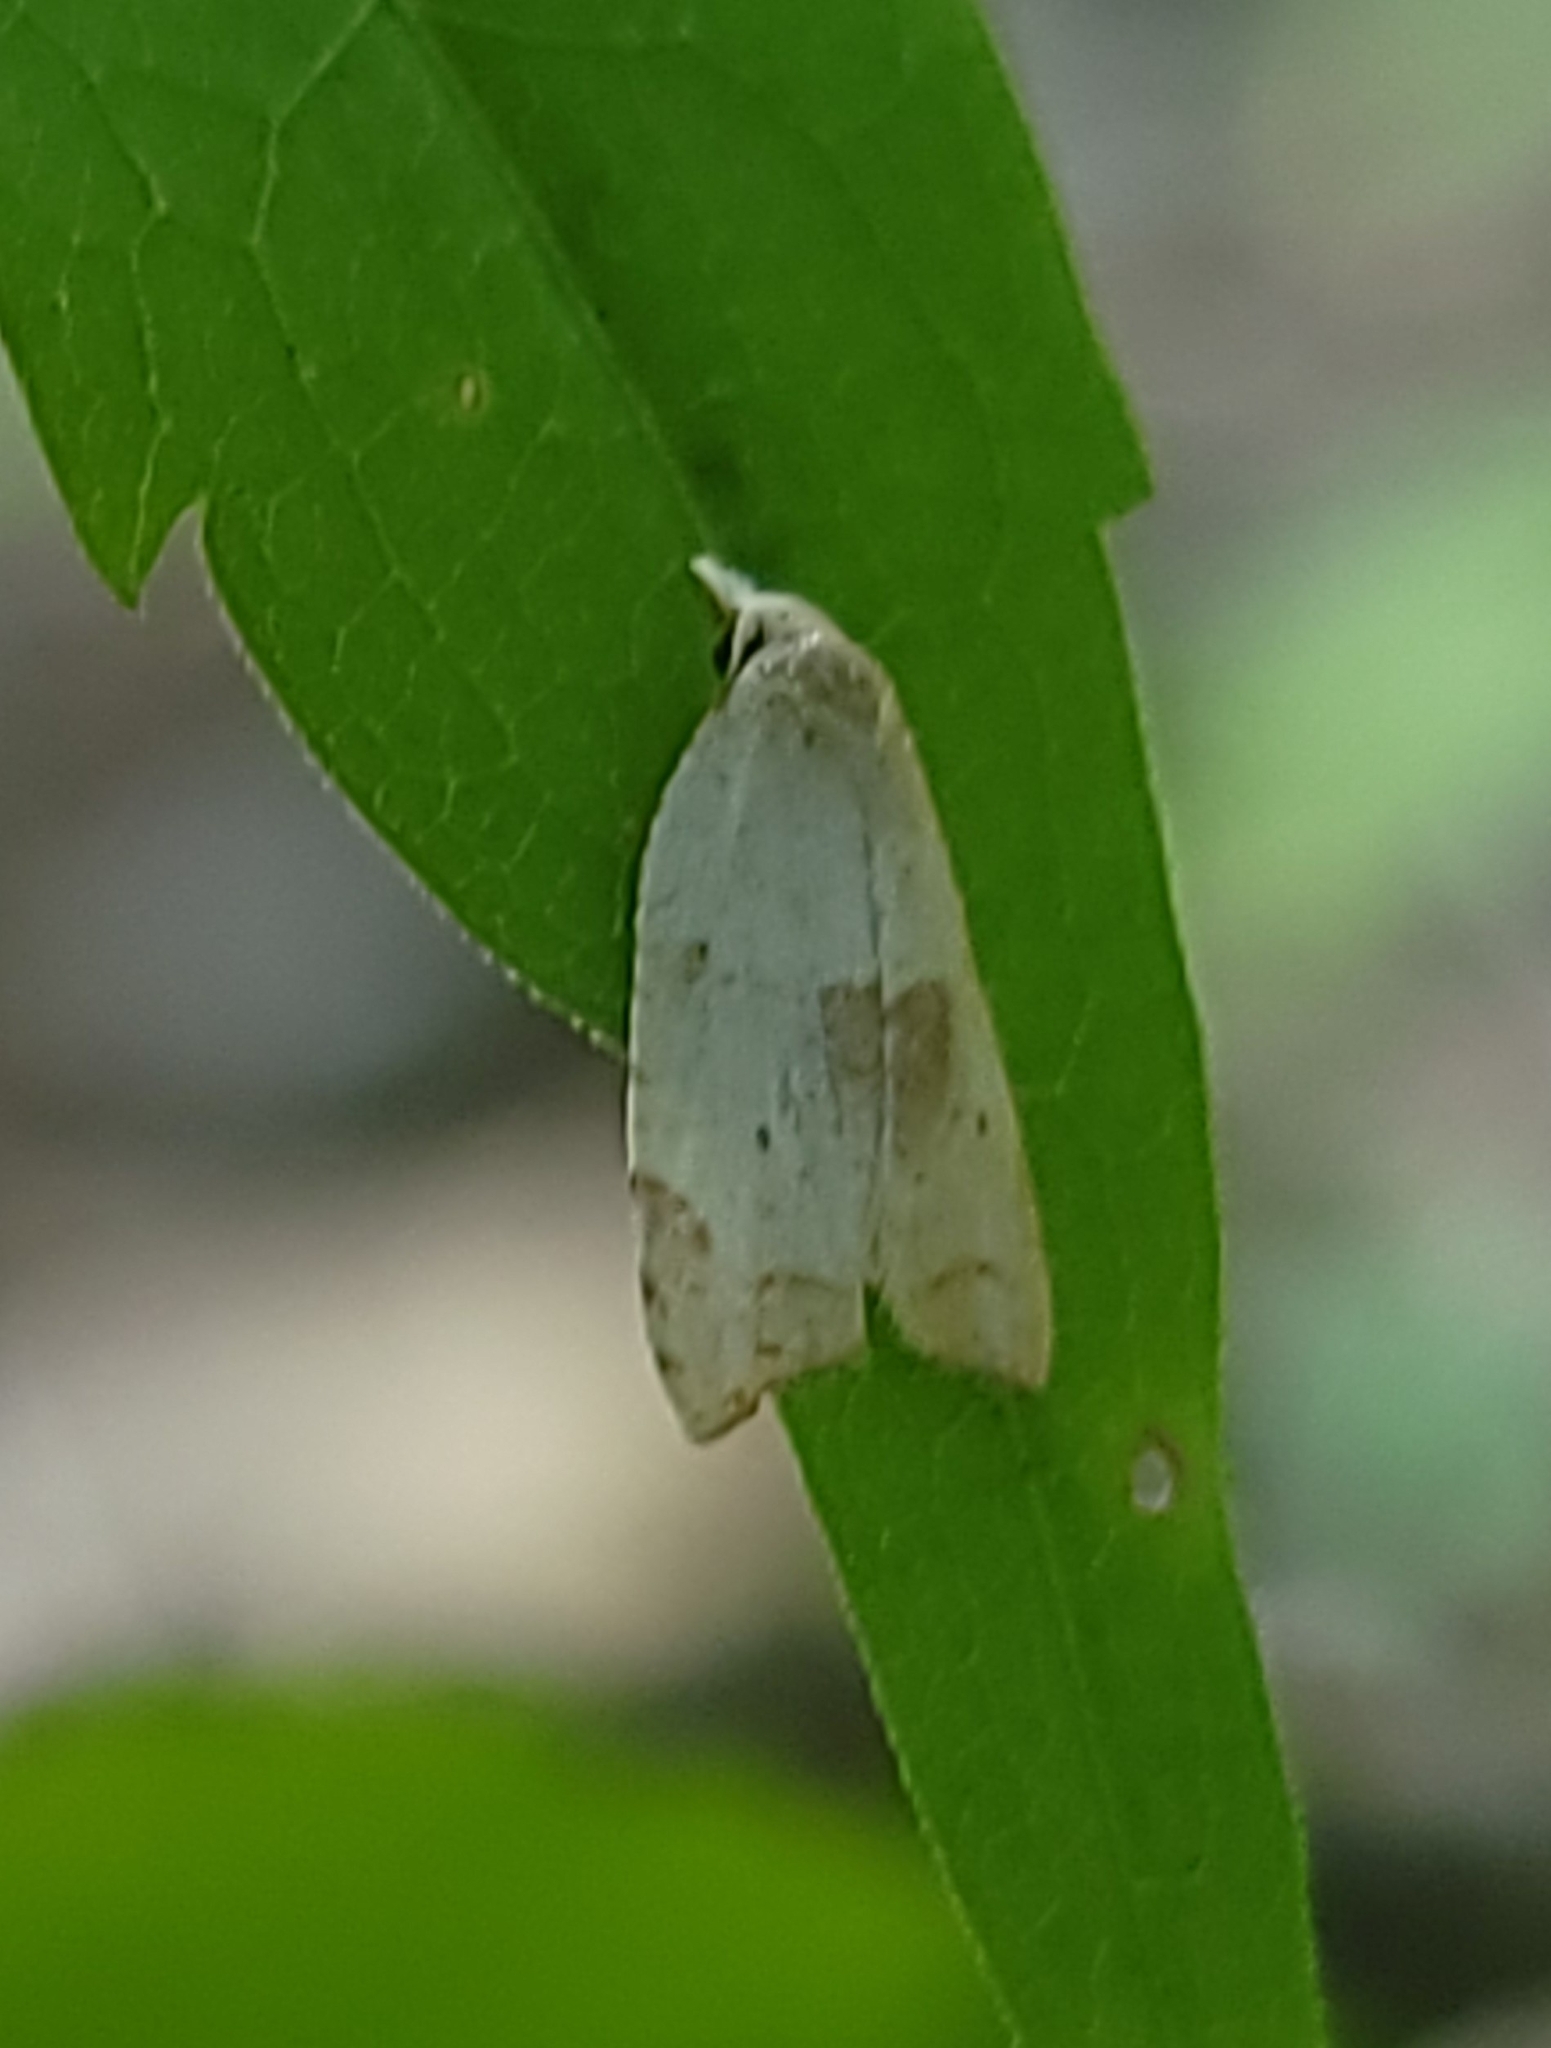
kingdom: Animalia
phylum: Arthropoda
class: Insecta
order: Lepidoptera
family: Tortricidae
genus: Coelostathma
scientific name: Coelostathma discopunctana
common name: Batman moth
